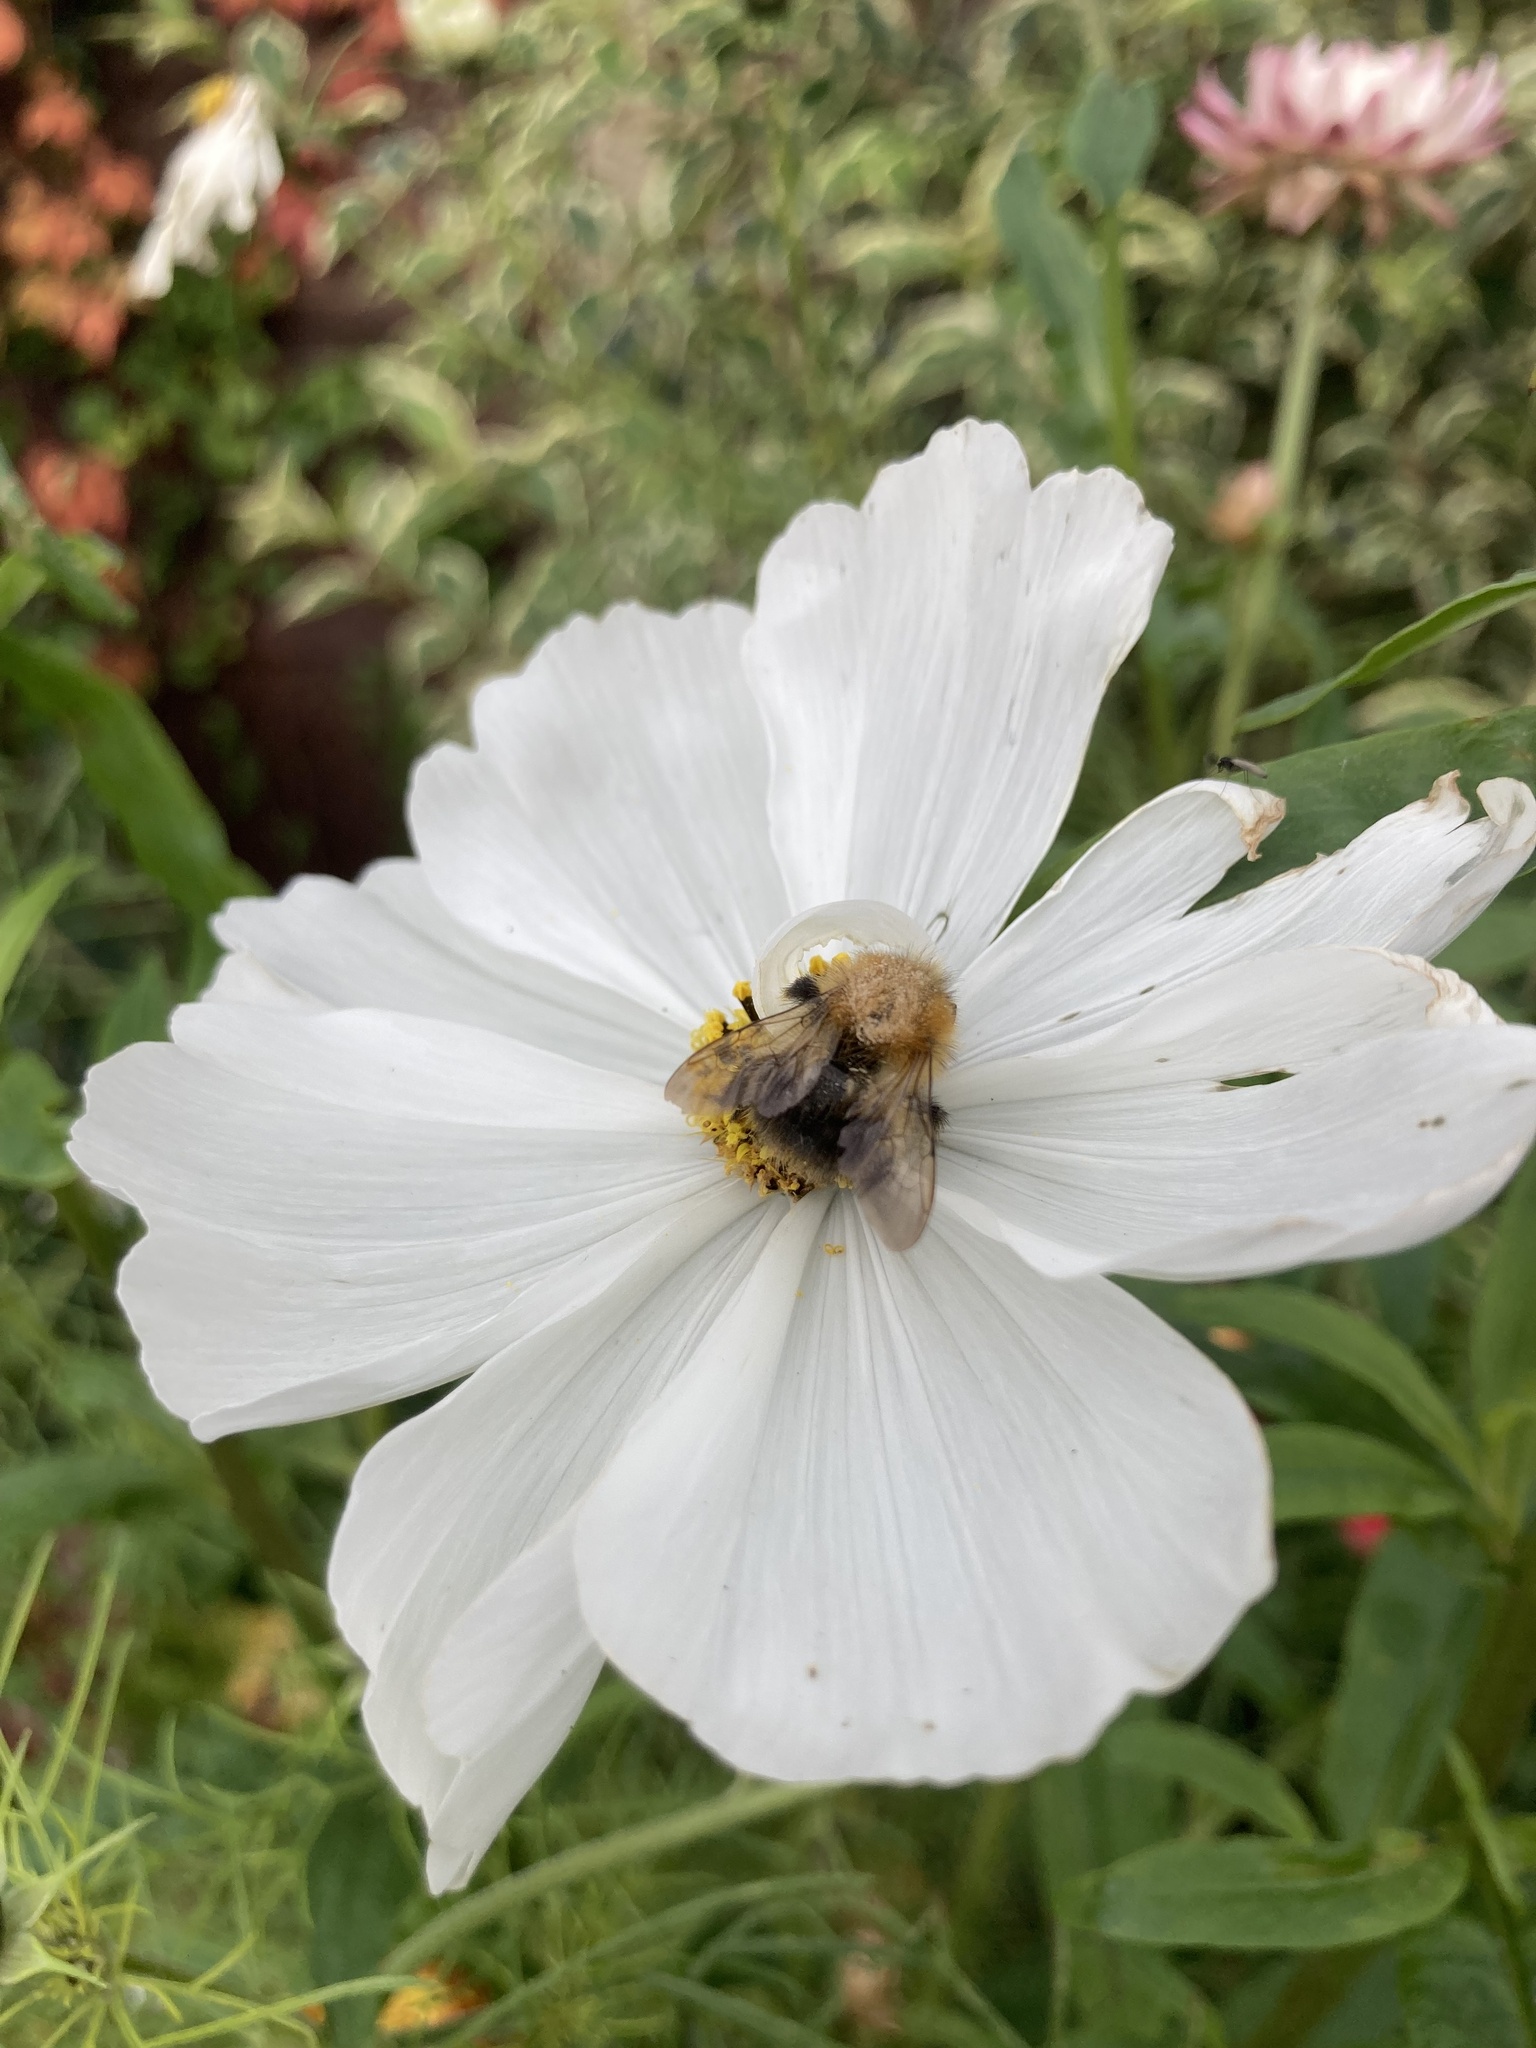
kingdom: Animalia
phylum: Arthropoda
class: Insecta
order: Hymenoptera
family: Apidae
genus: Bombus
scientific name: Bombus pascuorum
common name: Common carder bee
